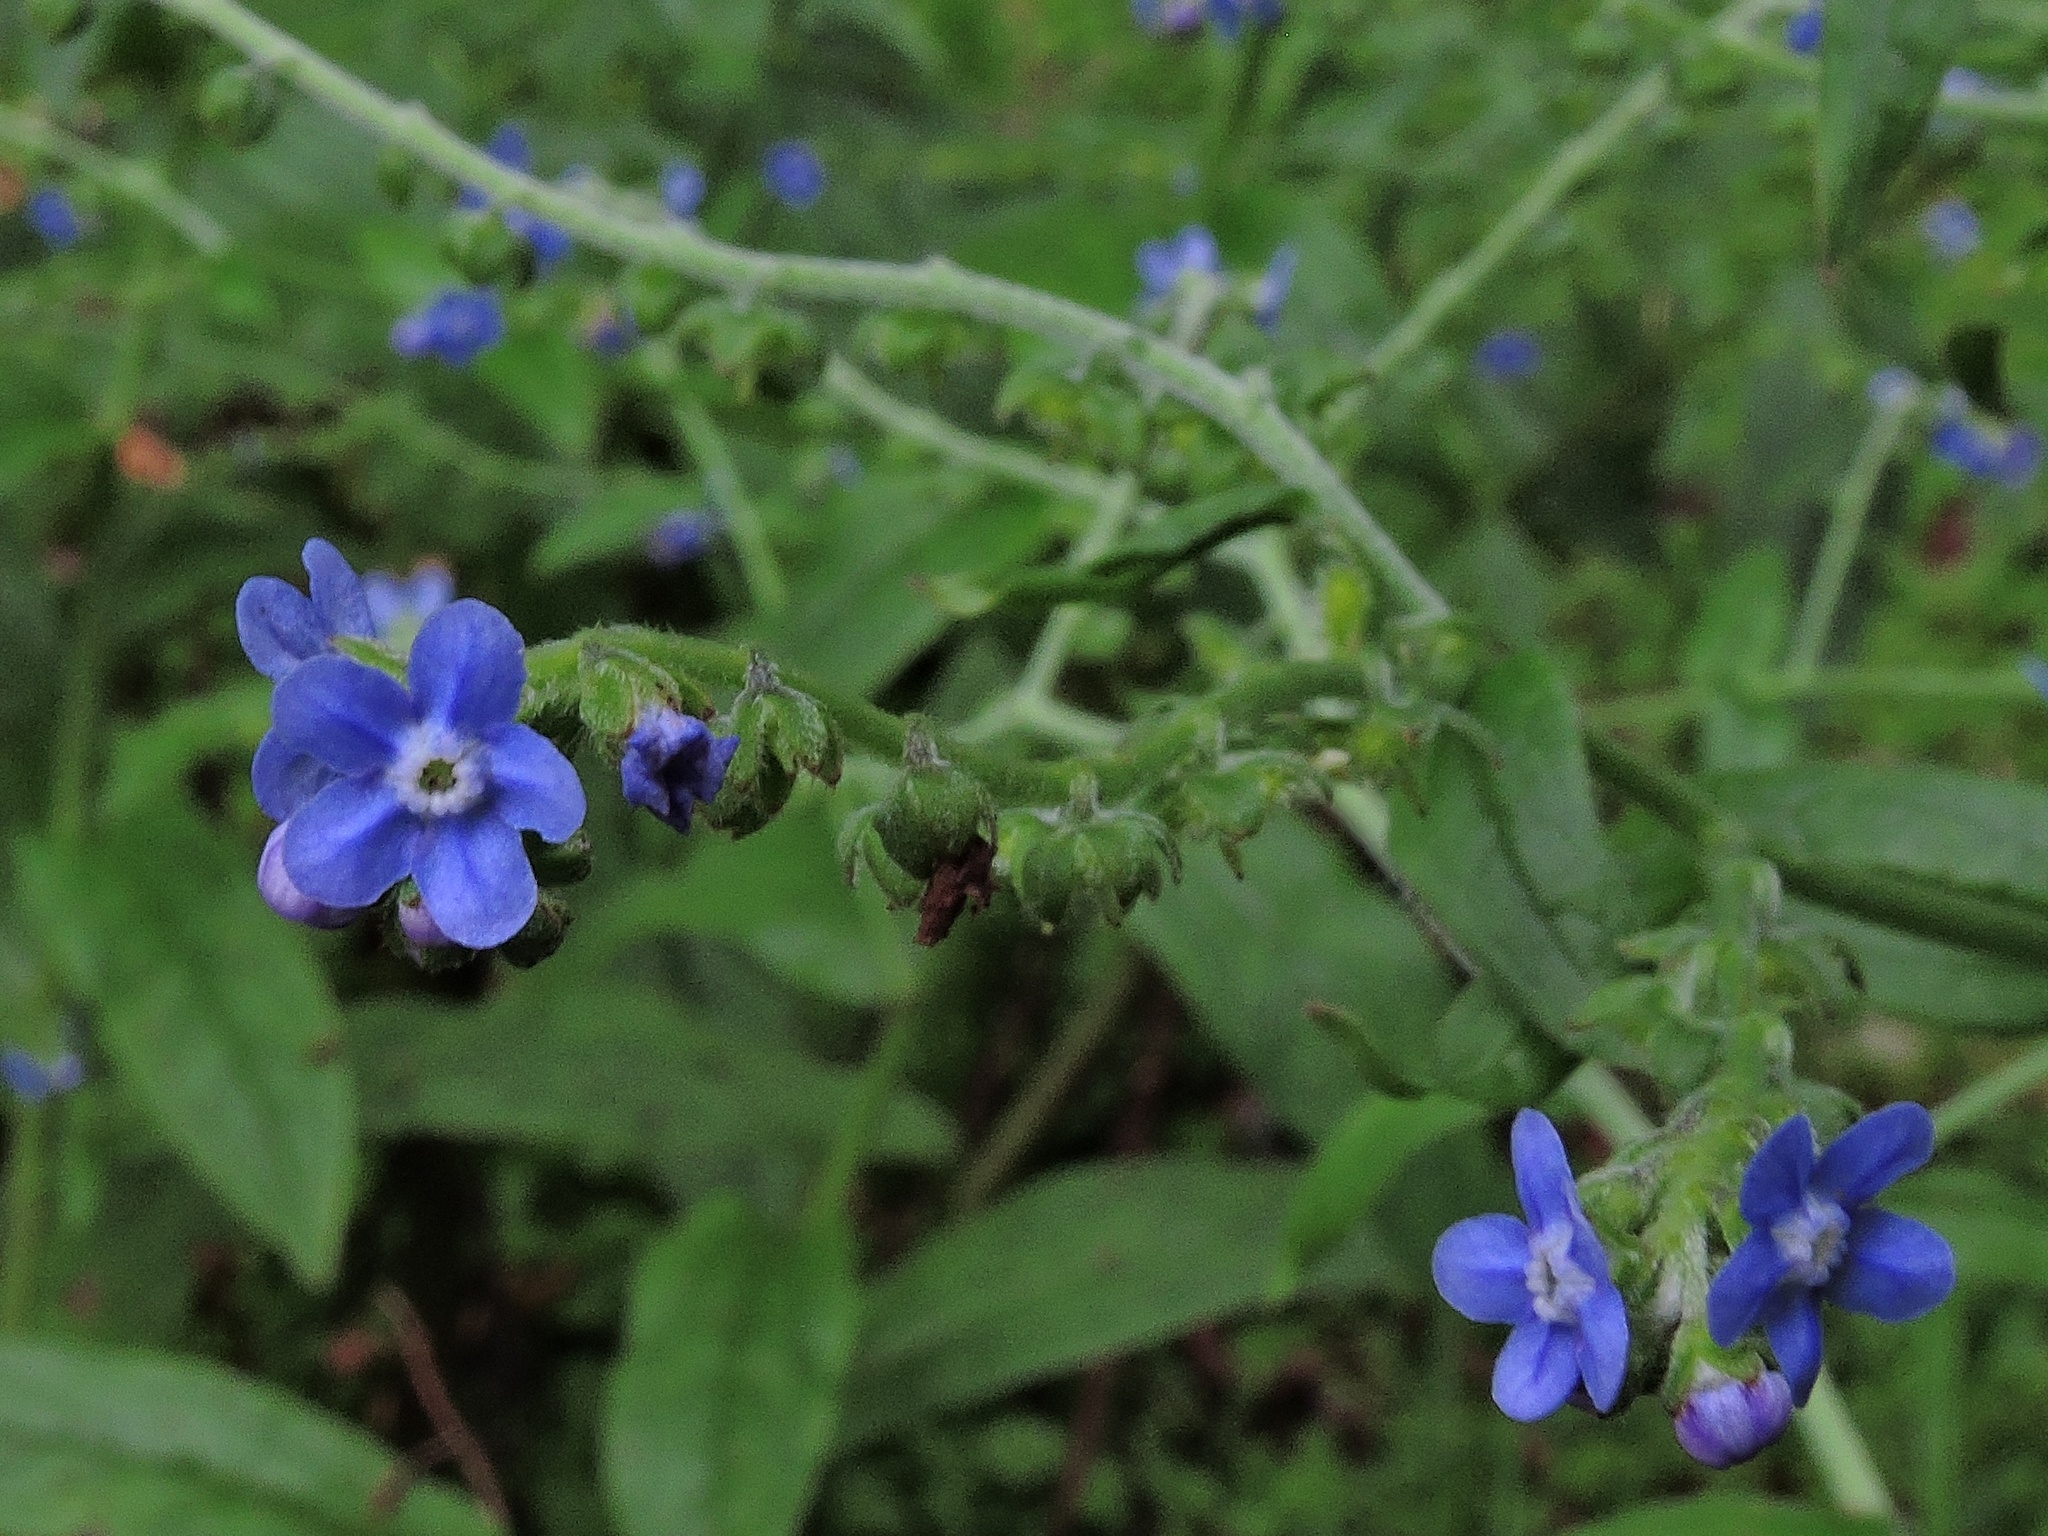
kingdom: Plantae
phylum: Tracheophyta
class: Magnoliopsida
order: Boraginales
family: Boraginaceae
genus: Cynoglossum
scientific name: Cynoglossum zeylanicum
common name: Ceylon hound's tongue
